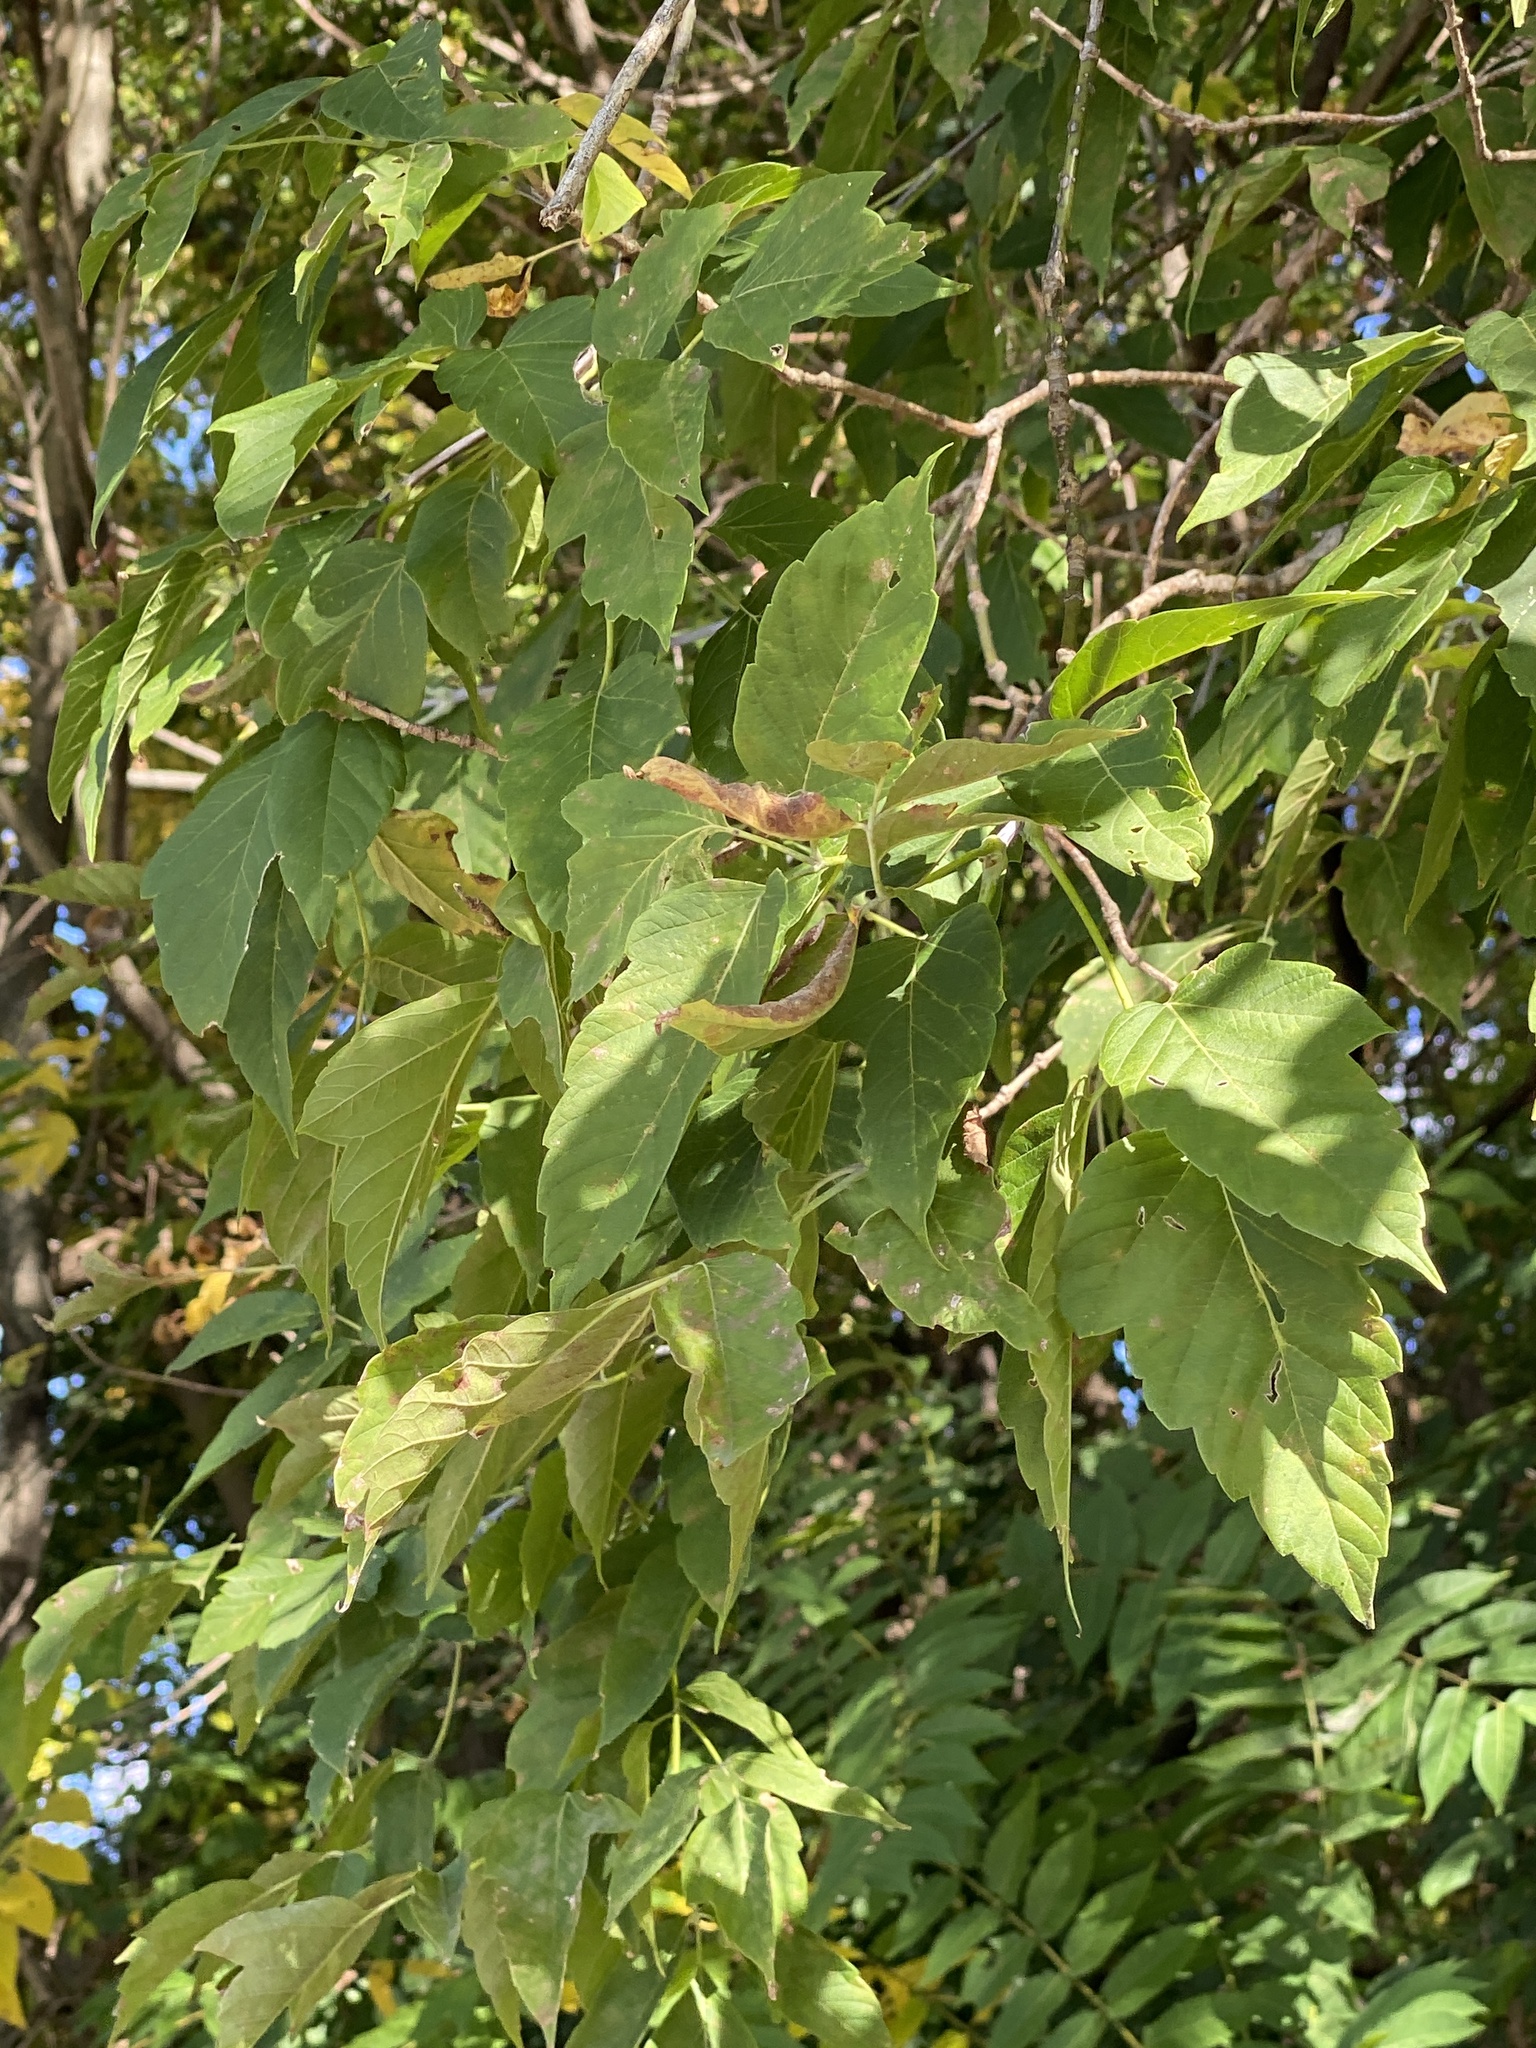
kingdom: Plantae
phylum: Tracheophyta
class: Magnoliopsida
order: Sapindales
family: Sapindaceae
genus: Acer
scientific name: Acer negundo
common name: Ashleaf maple
